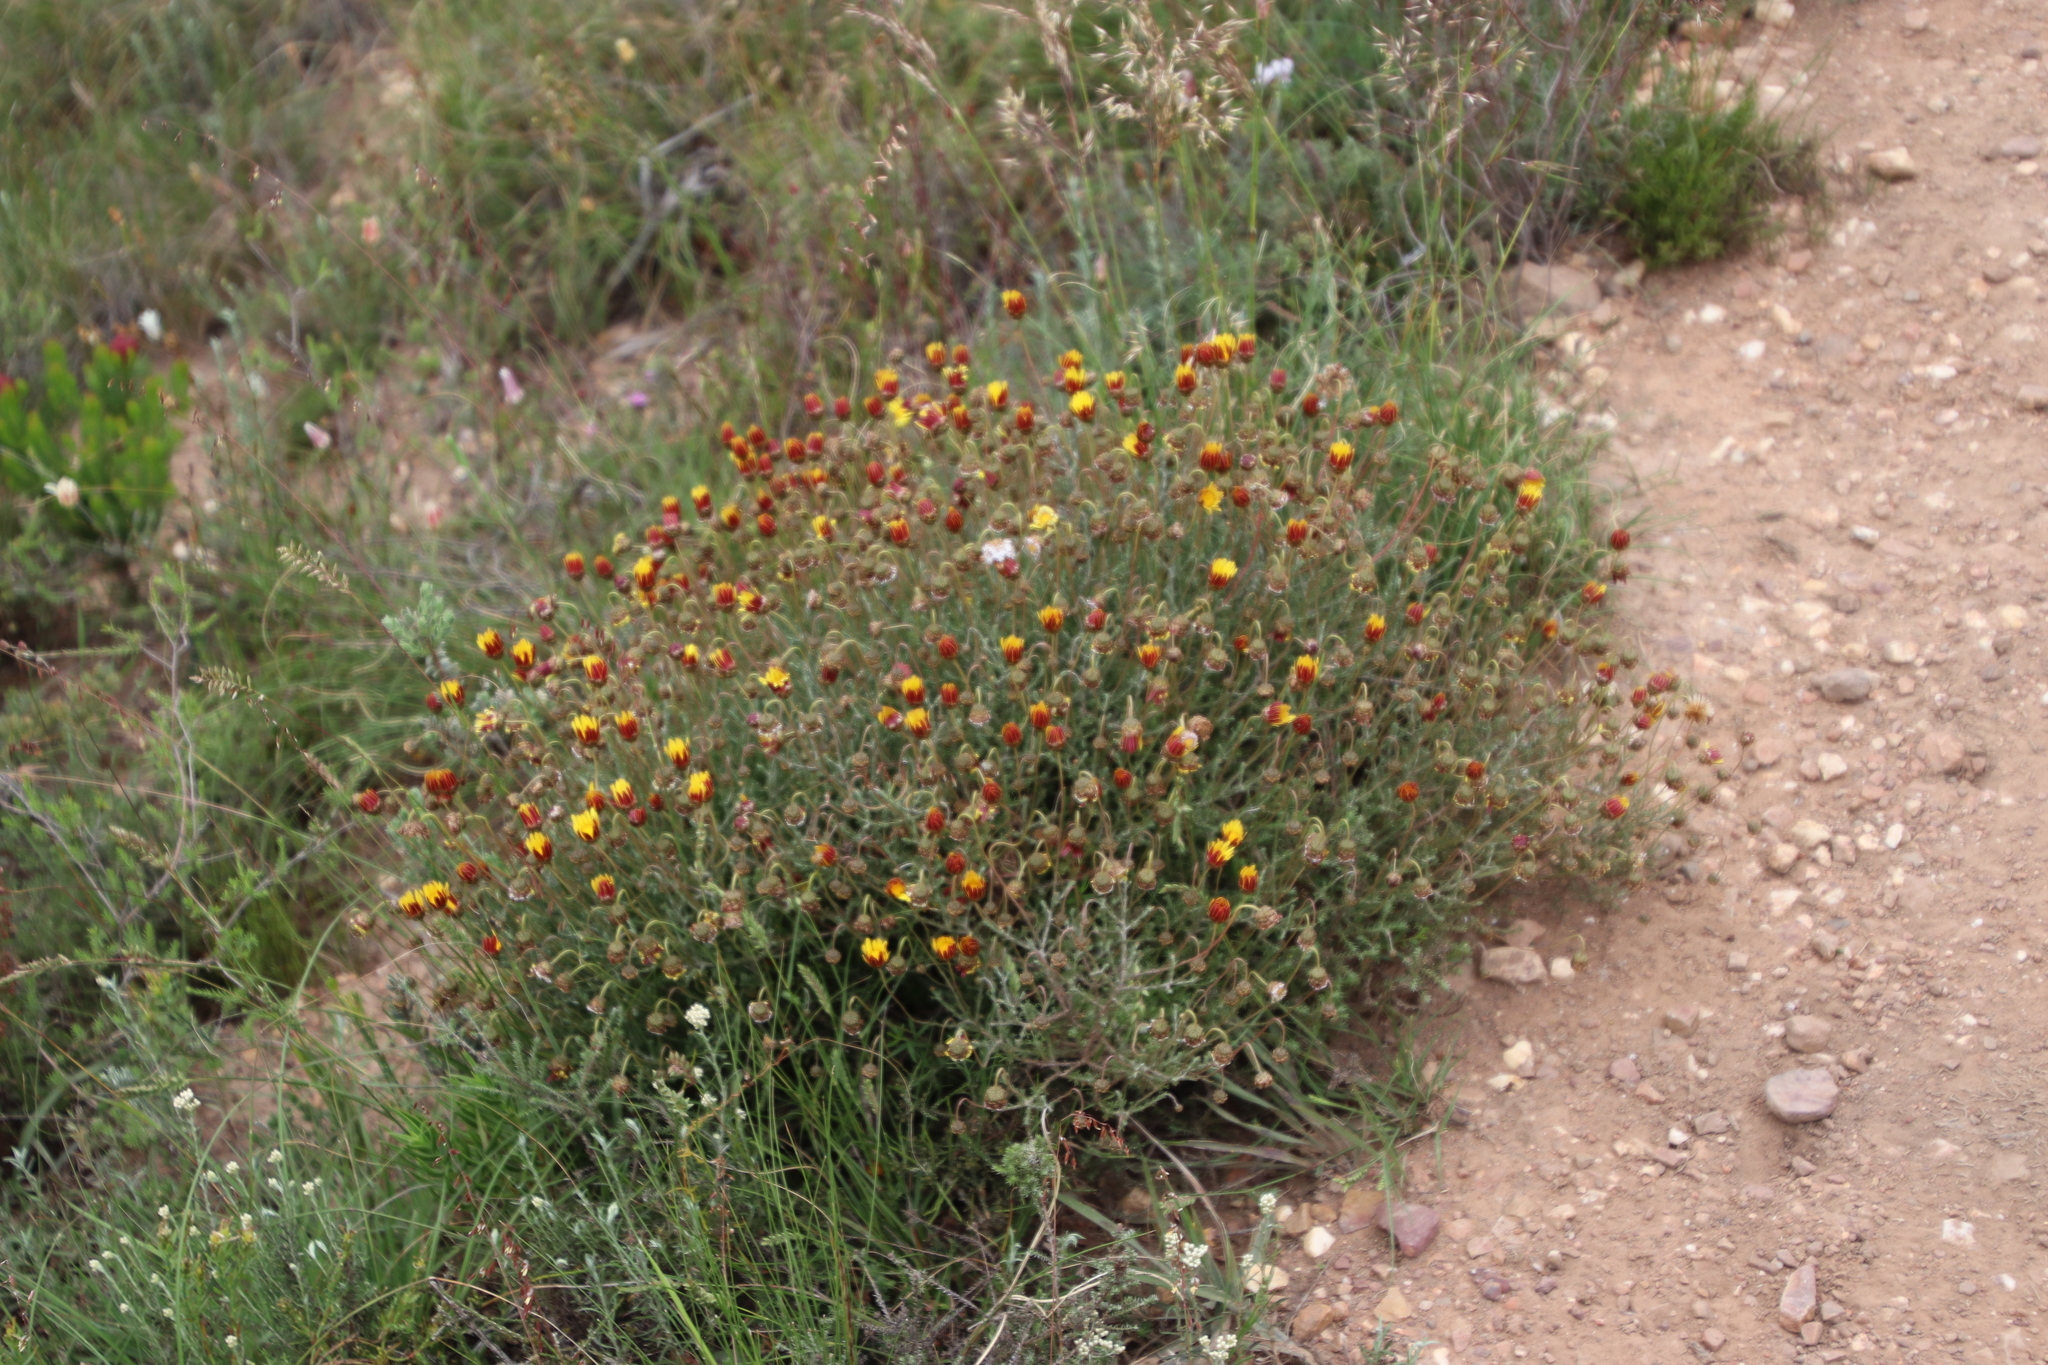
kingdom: Plantae
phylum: Tracheophyta
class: Magnoliopsida
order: Asterales
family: Asteraceae
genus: Ursinia
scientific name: Ursinia discolor
